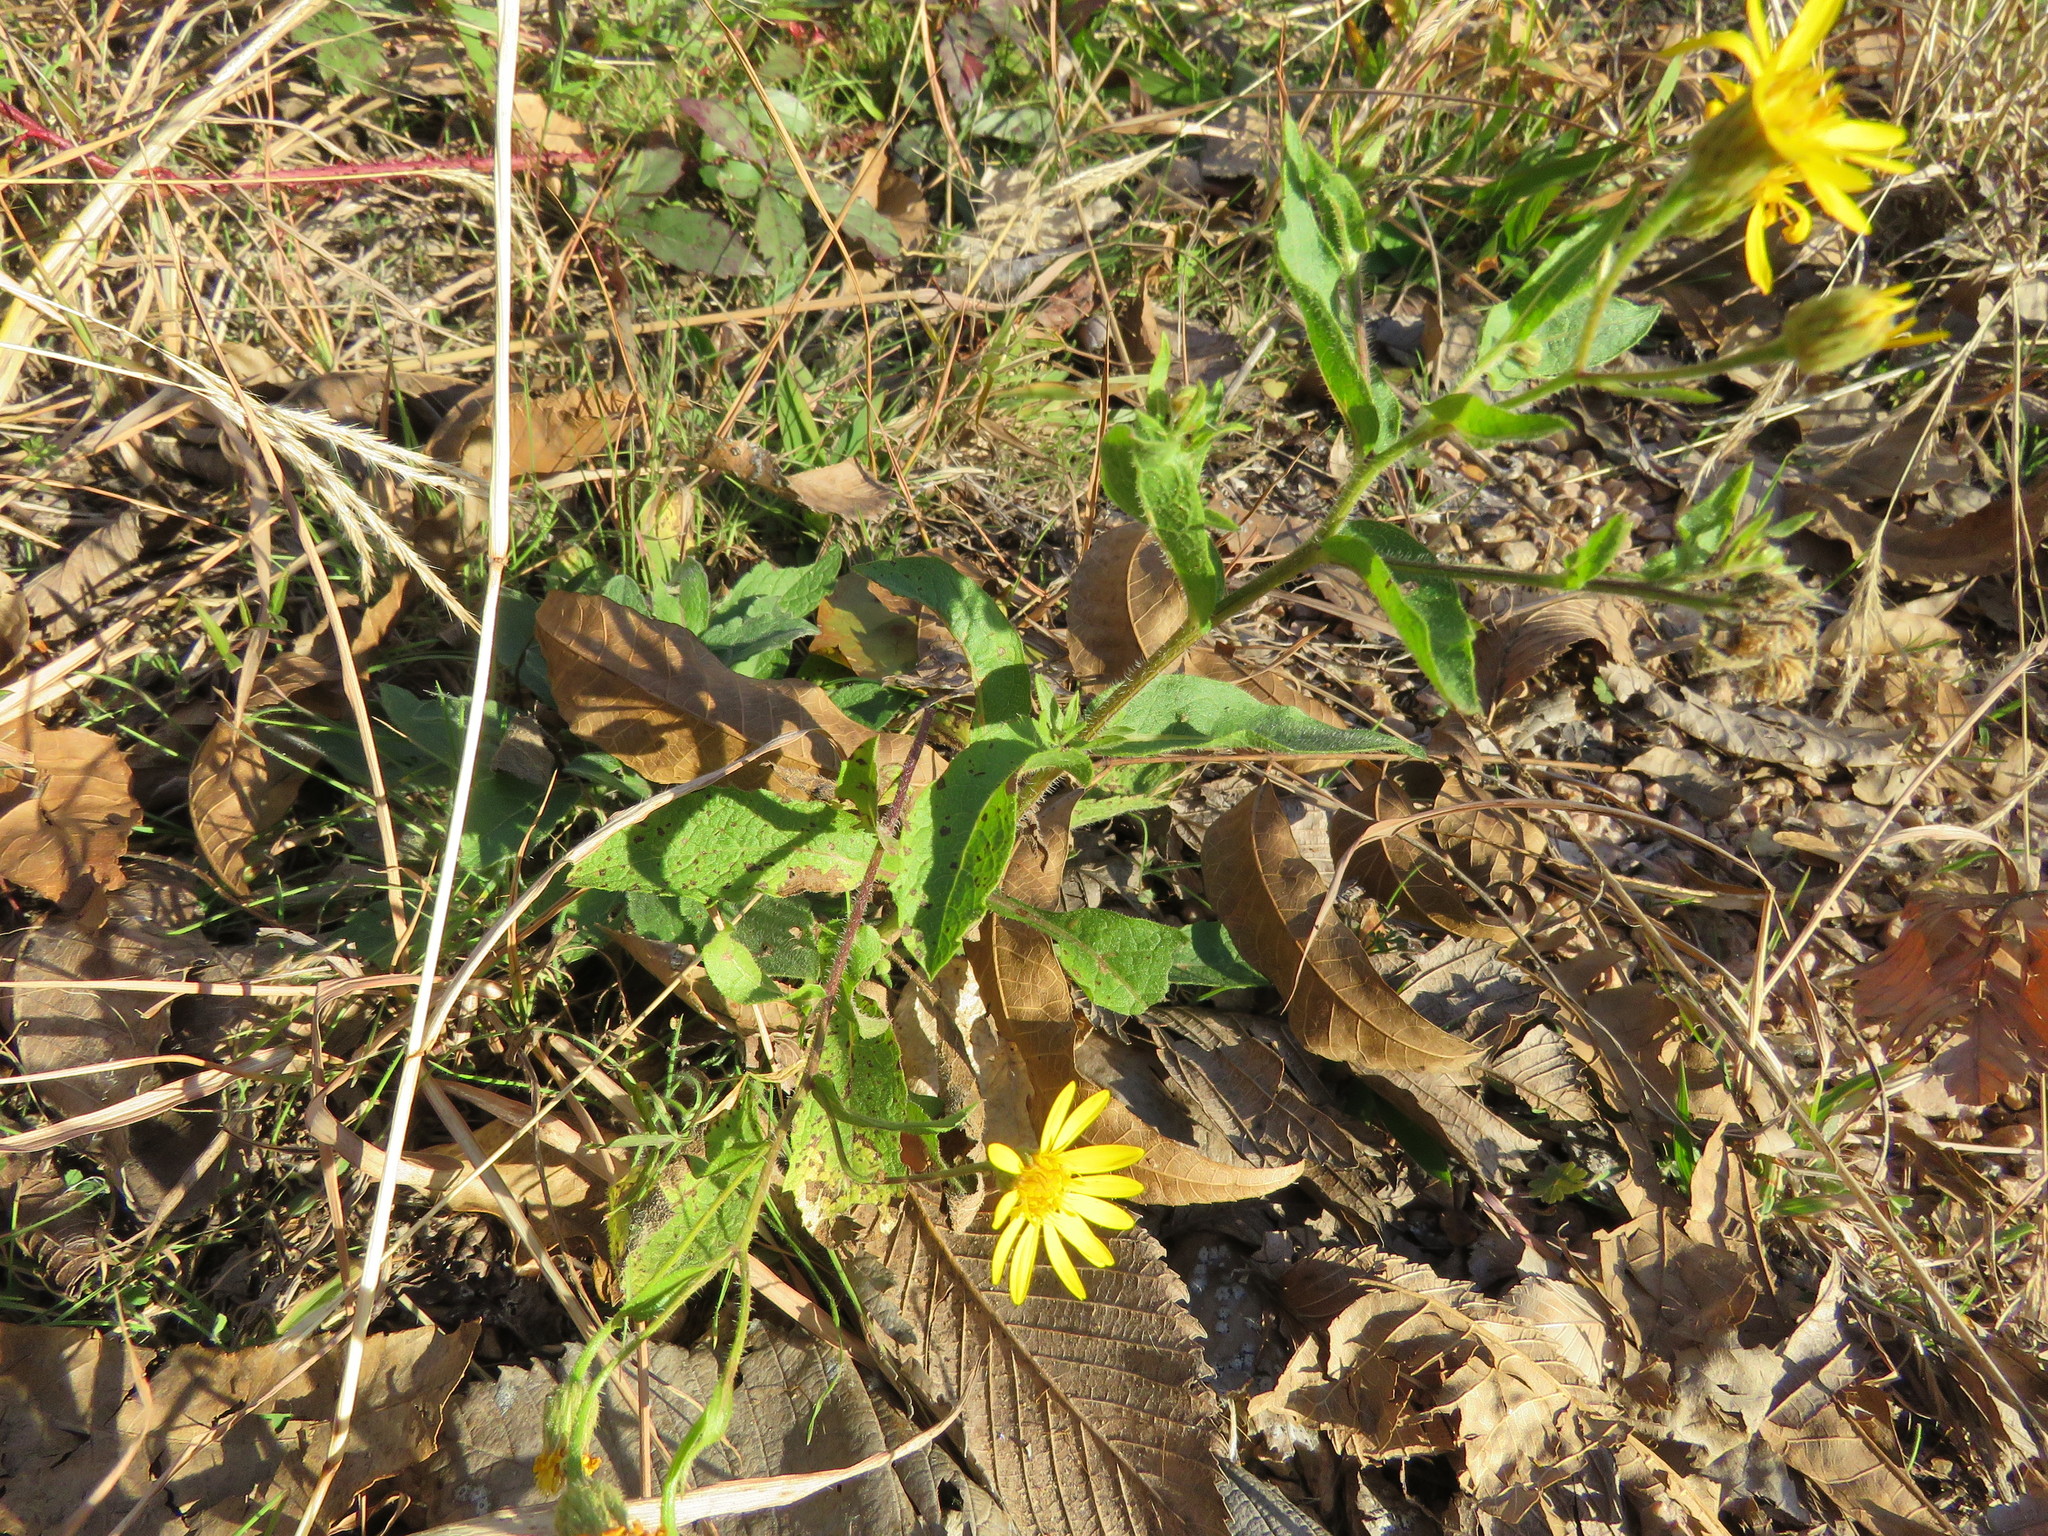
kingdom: Plantae
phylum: Tracheophyta
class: Magnoliopsida
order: Asterales
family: Asteraceae
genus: Heterotheca
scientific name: Heterotheca subaxillaris
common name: Camphorweed
